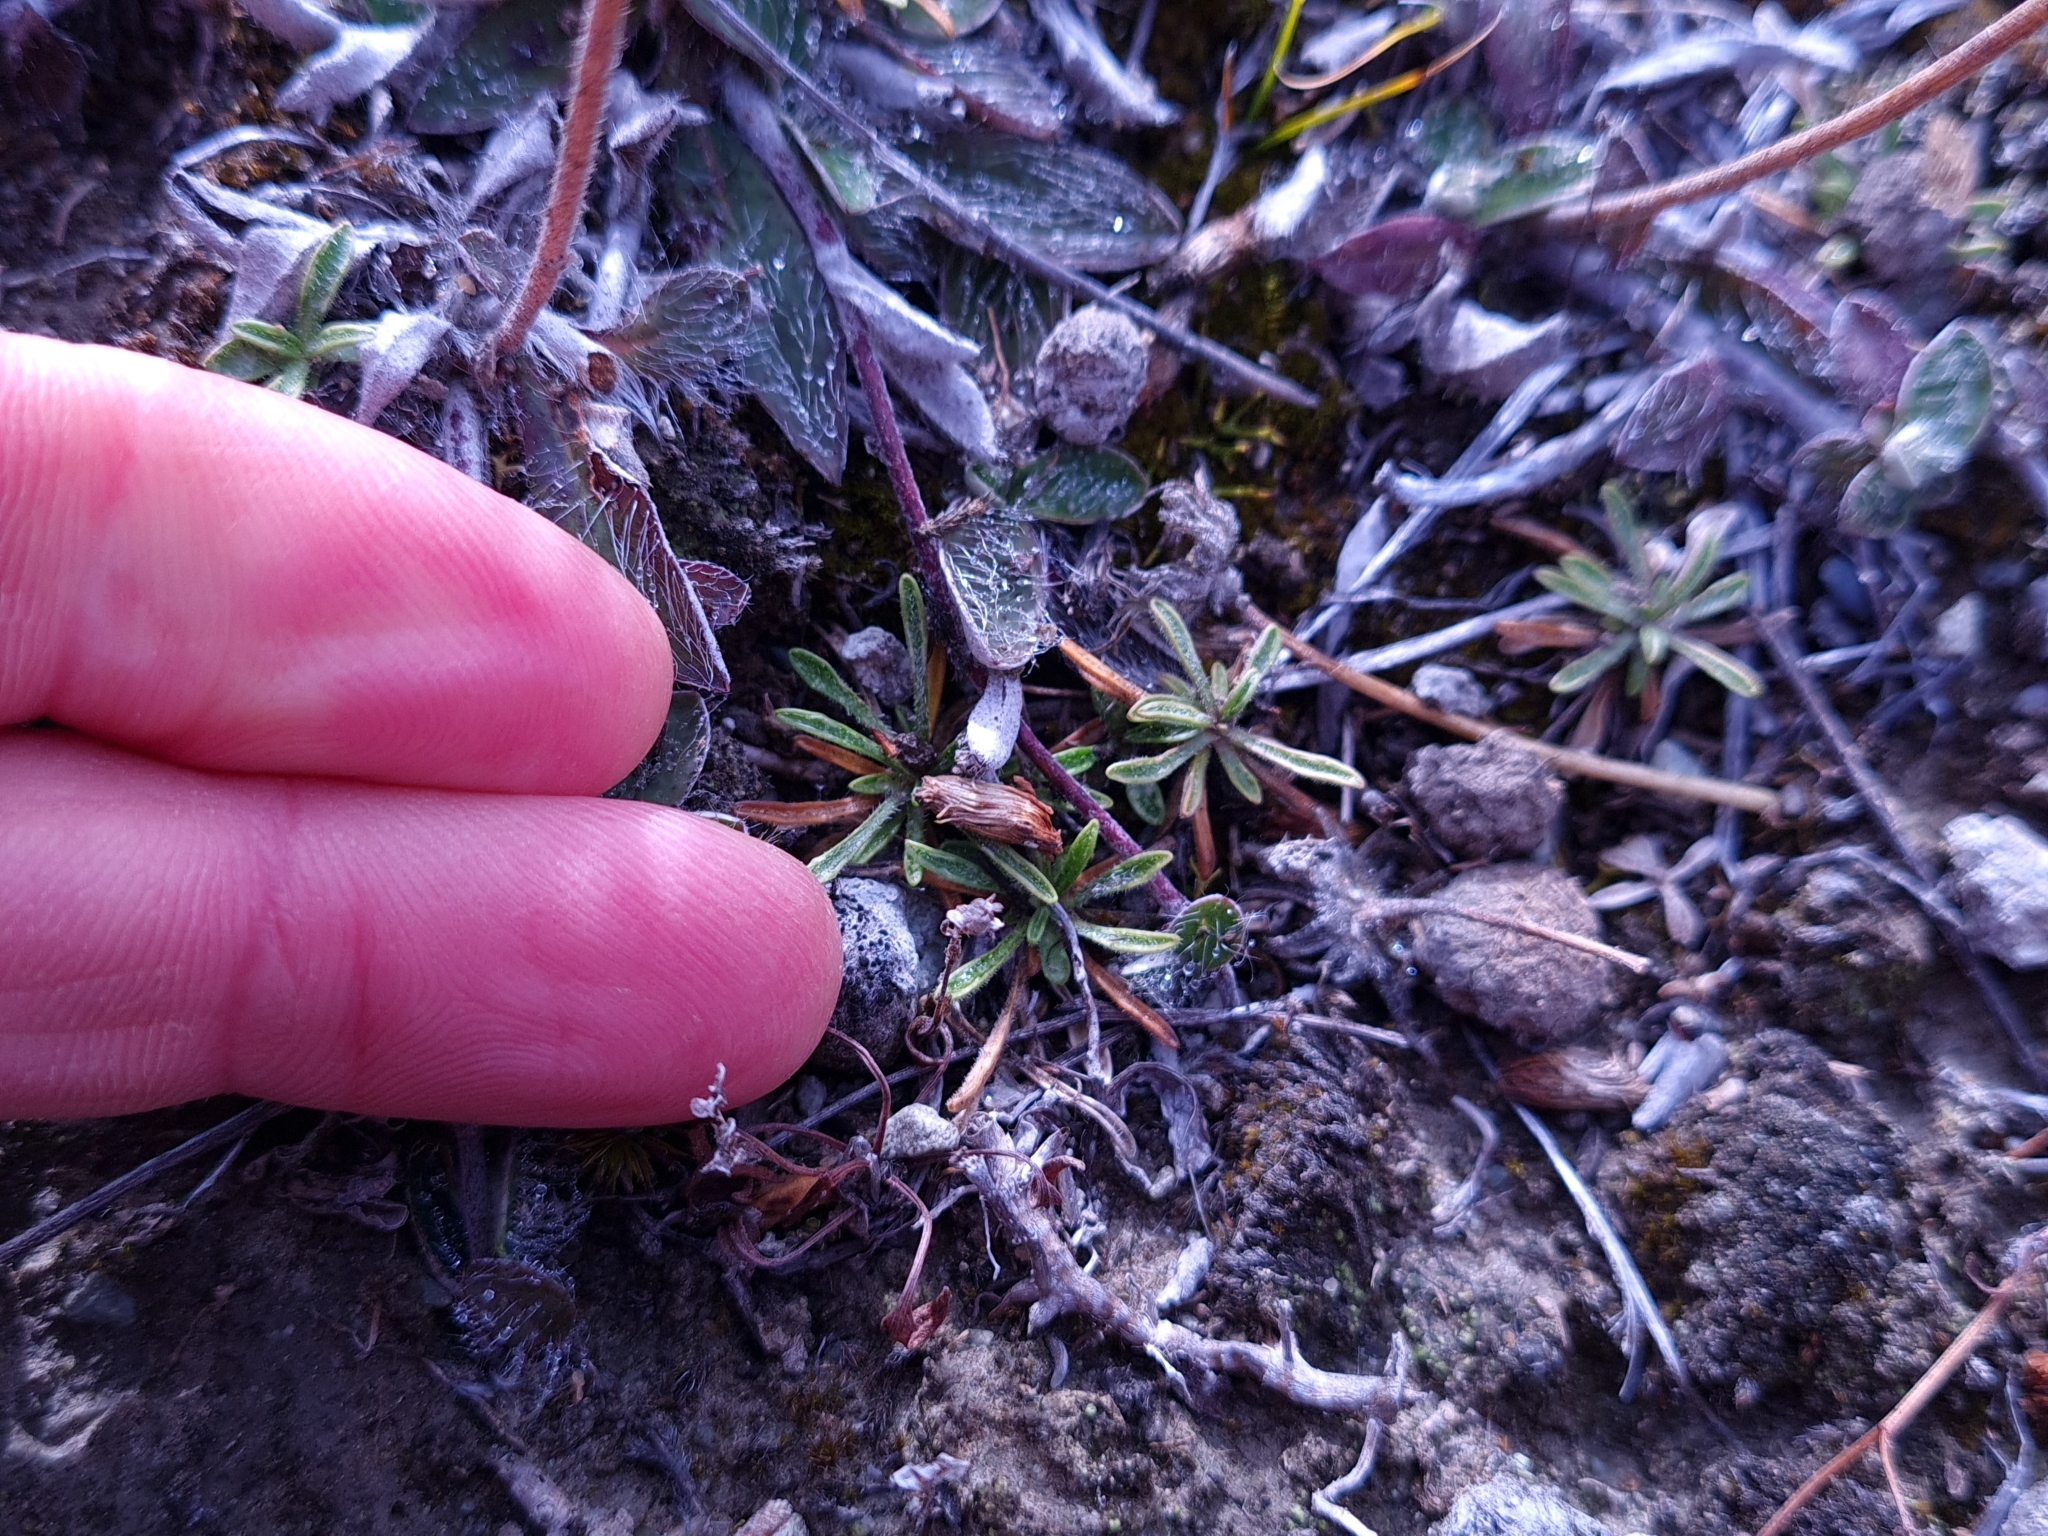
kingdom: Plantae
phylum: Tracheophyta
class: Magnoliopsida
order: Asterales
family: Campanulaceae
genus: Wahlenbergia
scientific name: Wahlenbergia albomarginata
